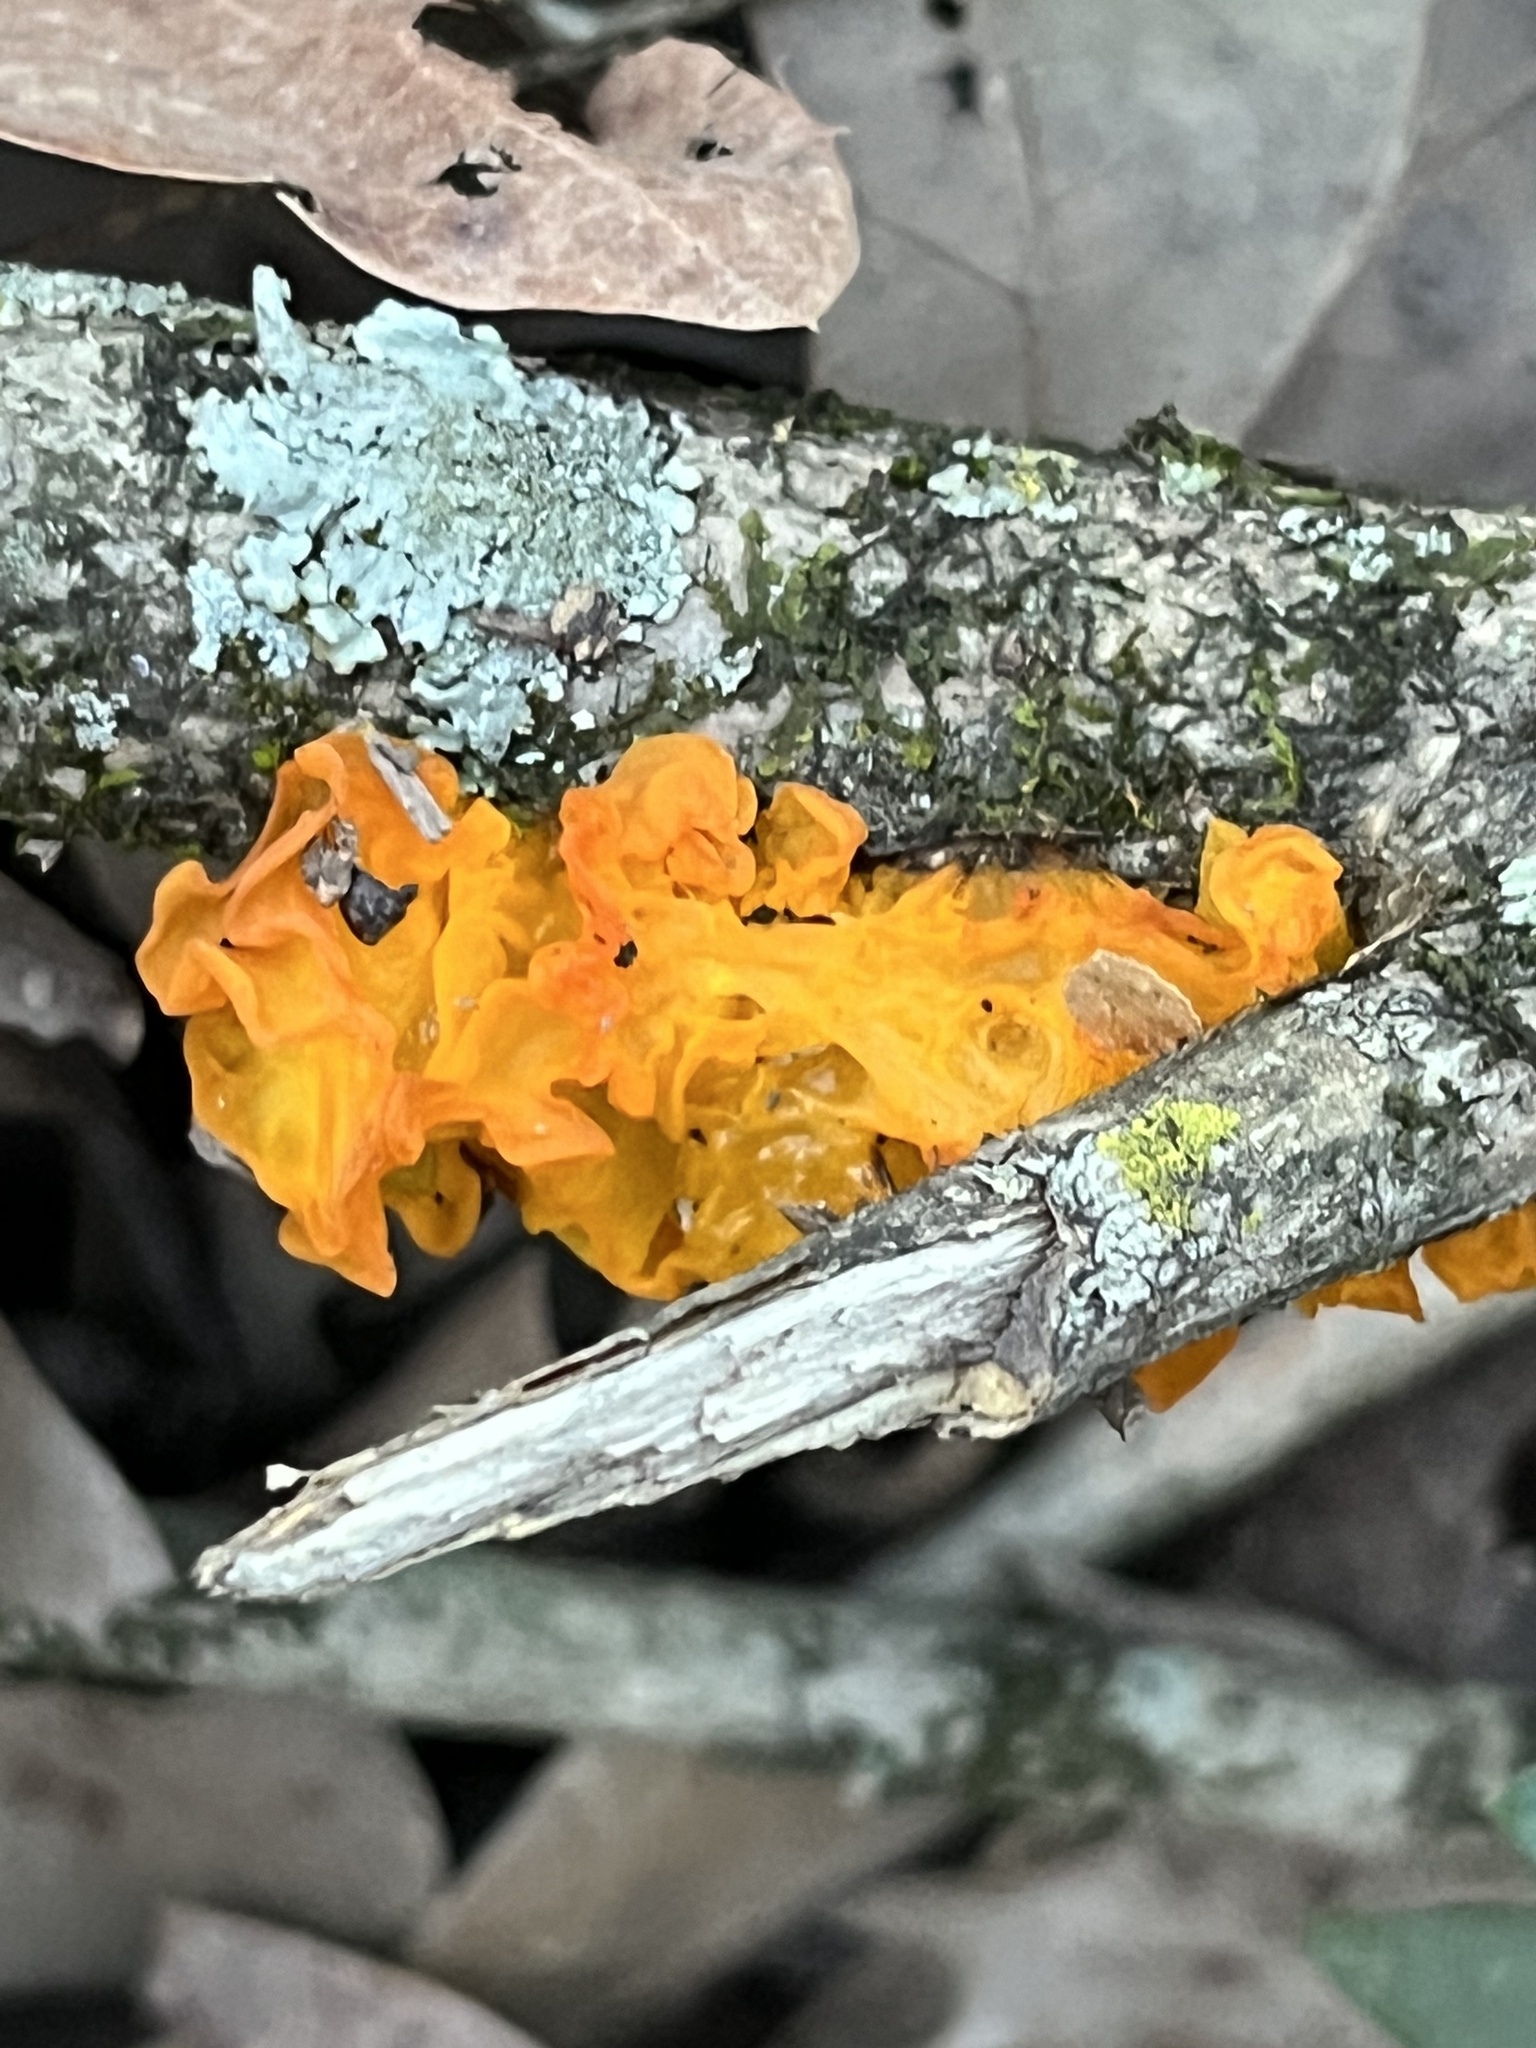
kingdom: Fungi
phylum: Basidiomycota
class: Tremellomycetes
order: Tremellales
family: Tremellaceae
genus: Tremella
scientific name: Tremella mesenterica
